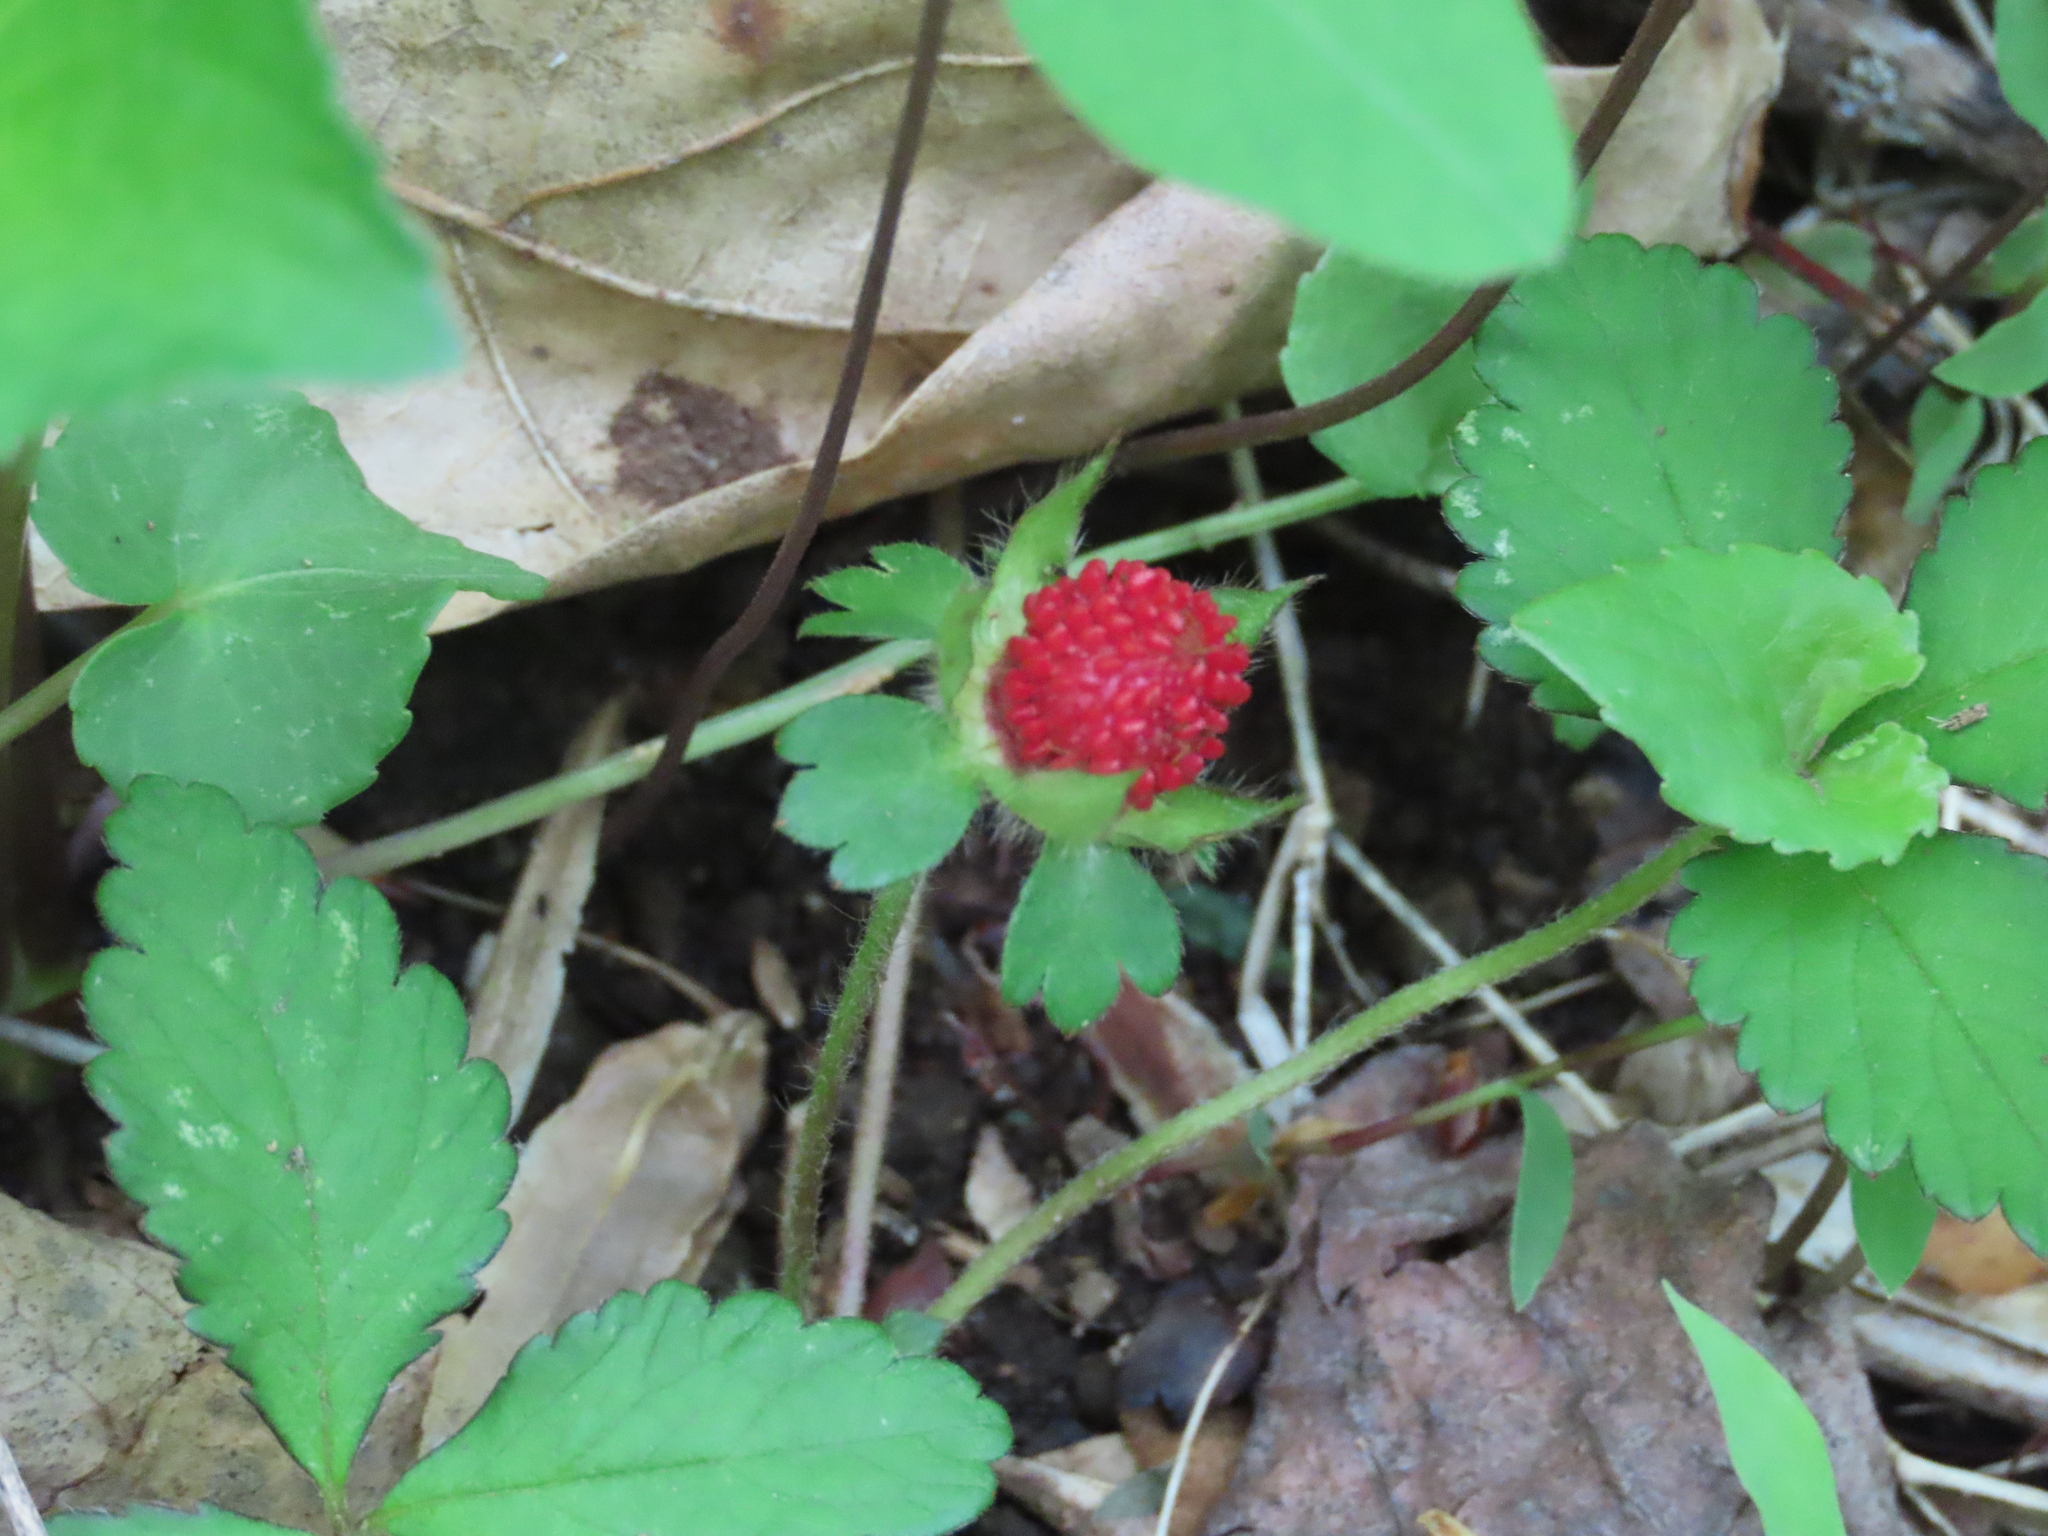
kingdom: Plantae
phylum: Tracheophyta
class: Magnoliopsida
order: Rosales
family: Rosaceae
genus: Potentilla
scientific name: Potentilla indica
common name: Yellow-flowered strawberry
